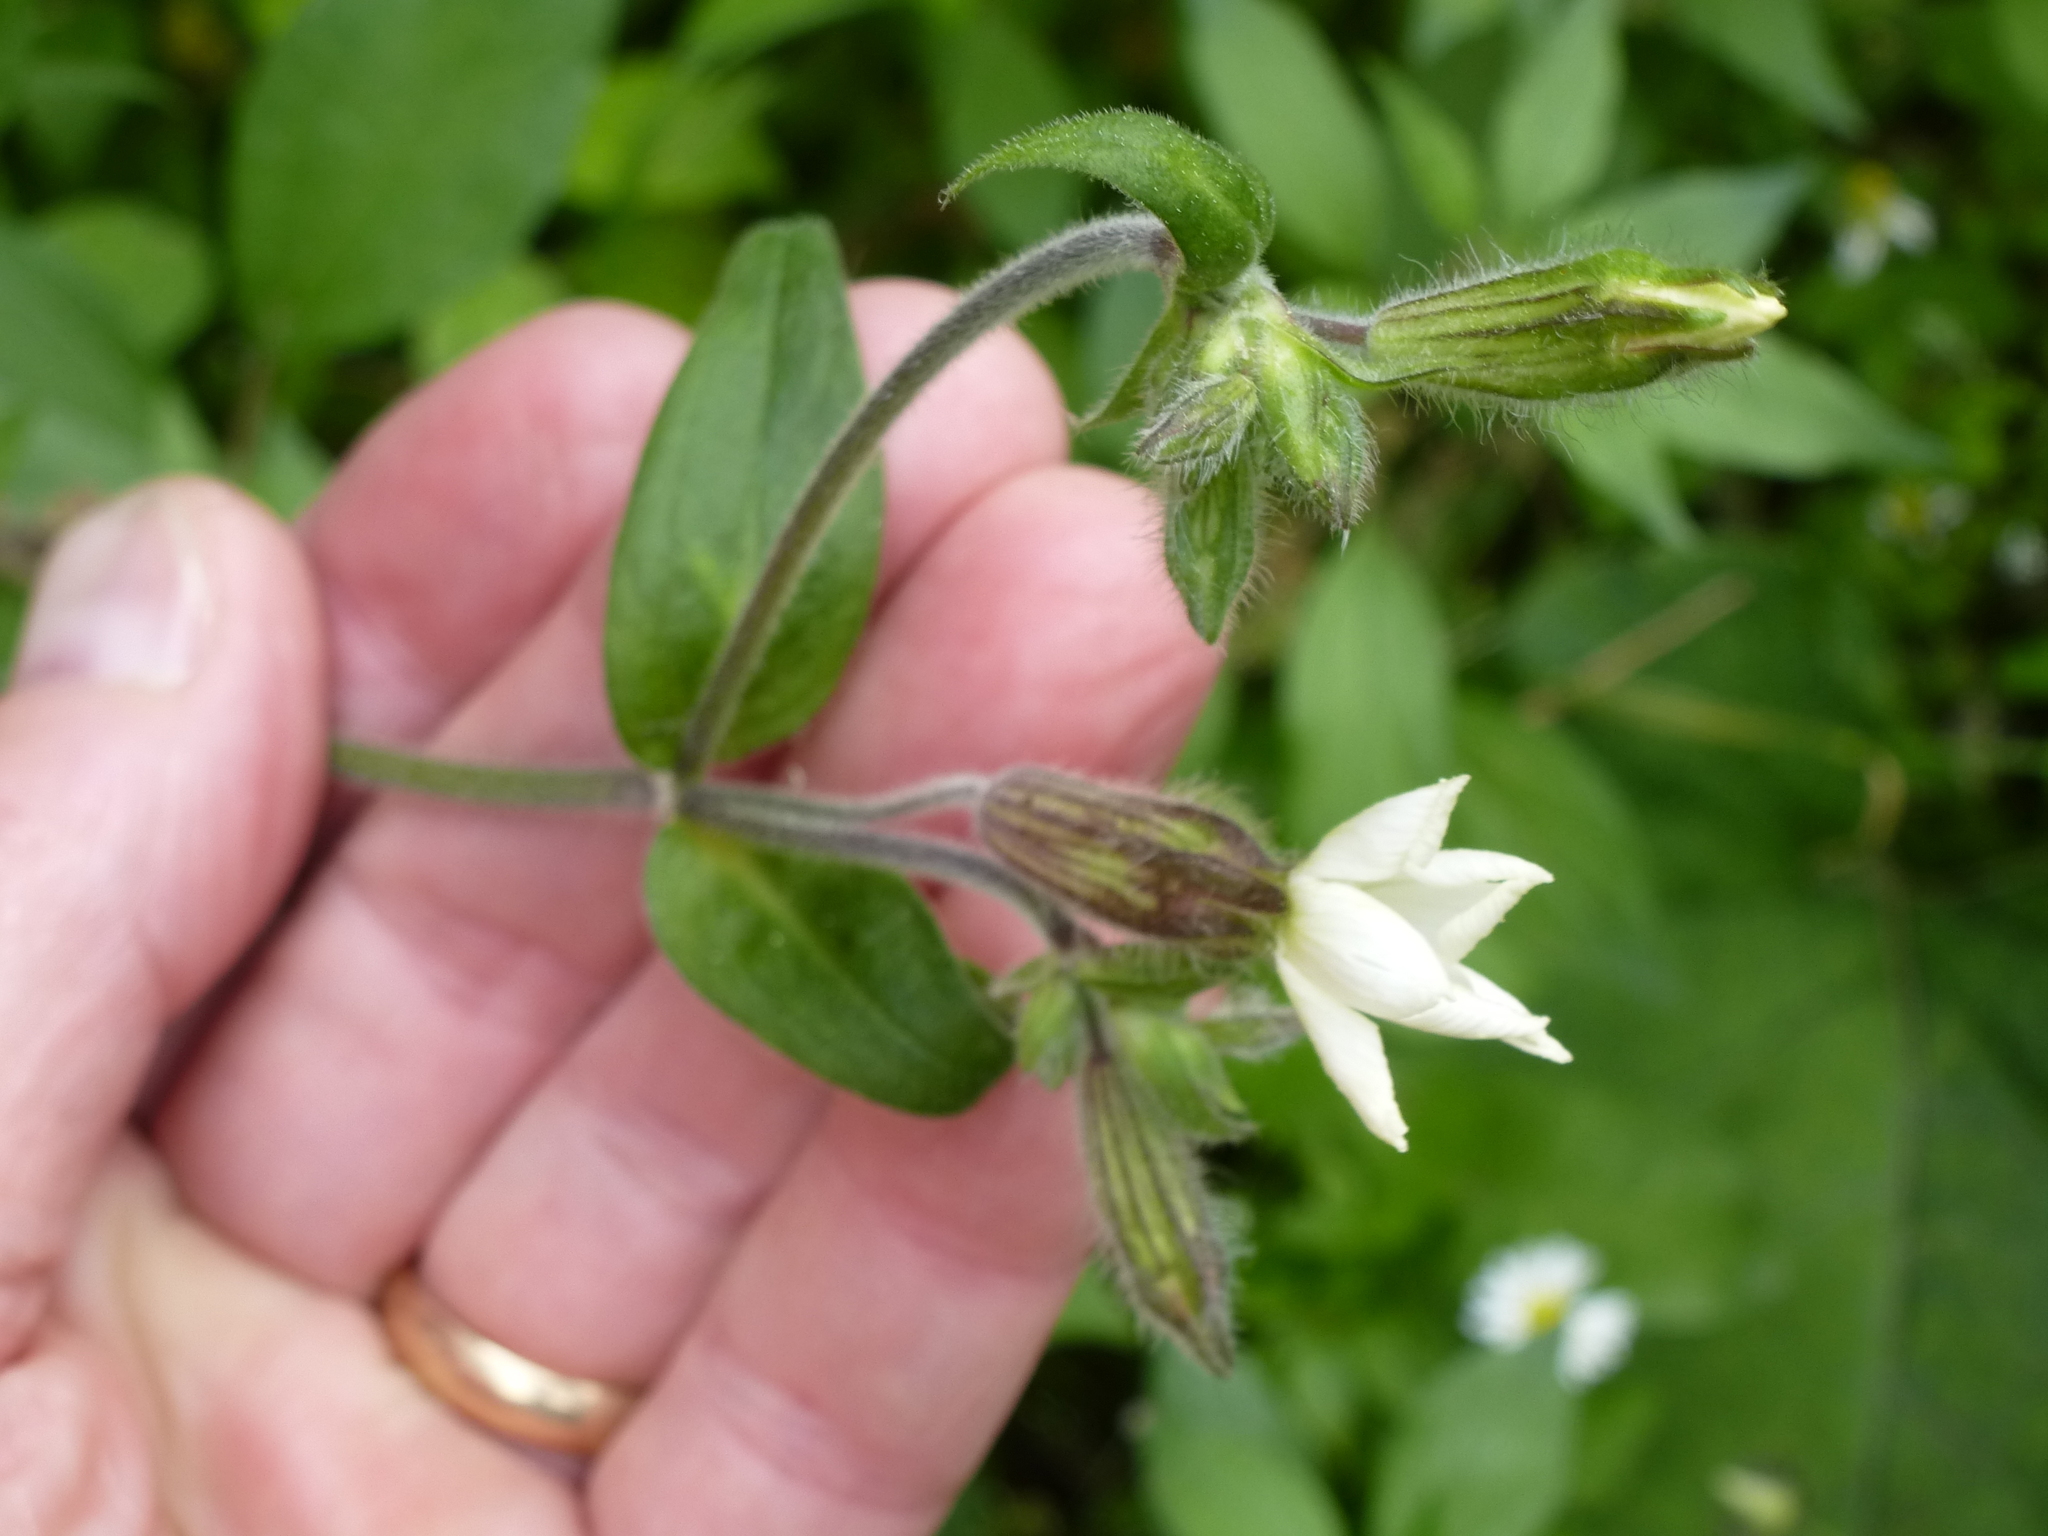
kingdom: Plantae
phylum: Tracheophyta
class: Magnoliopsida
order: Caryophyllales
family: Caryophyllaceae
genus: Silene
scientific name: Silene latifolia
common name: White campion
